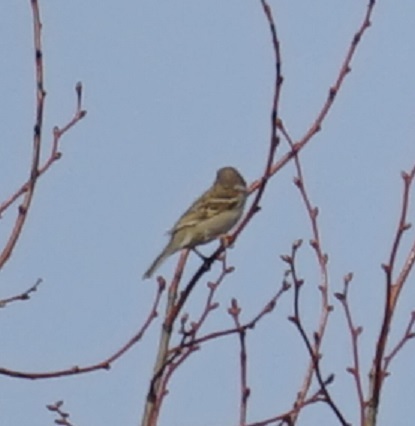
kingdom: Animalia
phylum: Chordata
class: Aves
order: Passeriformes
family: Passeridae
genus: Passer
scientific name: Passer montanus
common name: Eurasian tree sparrow
